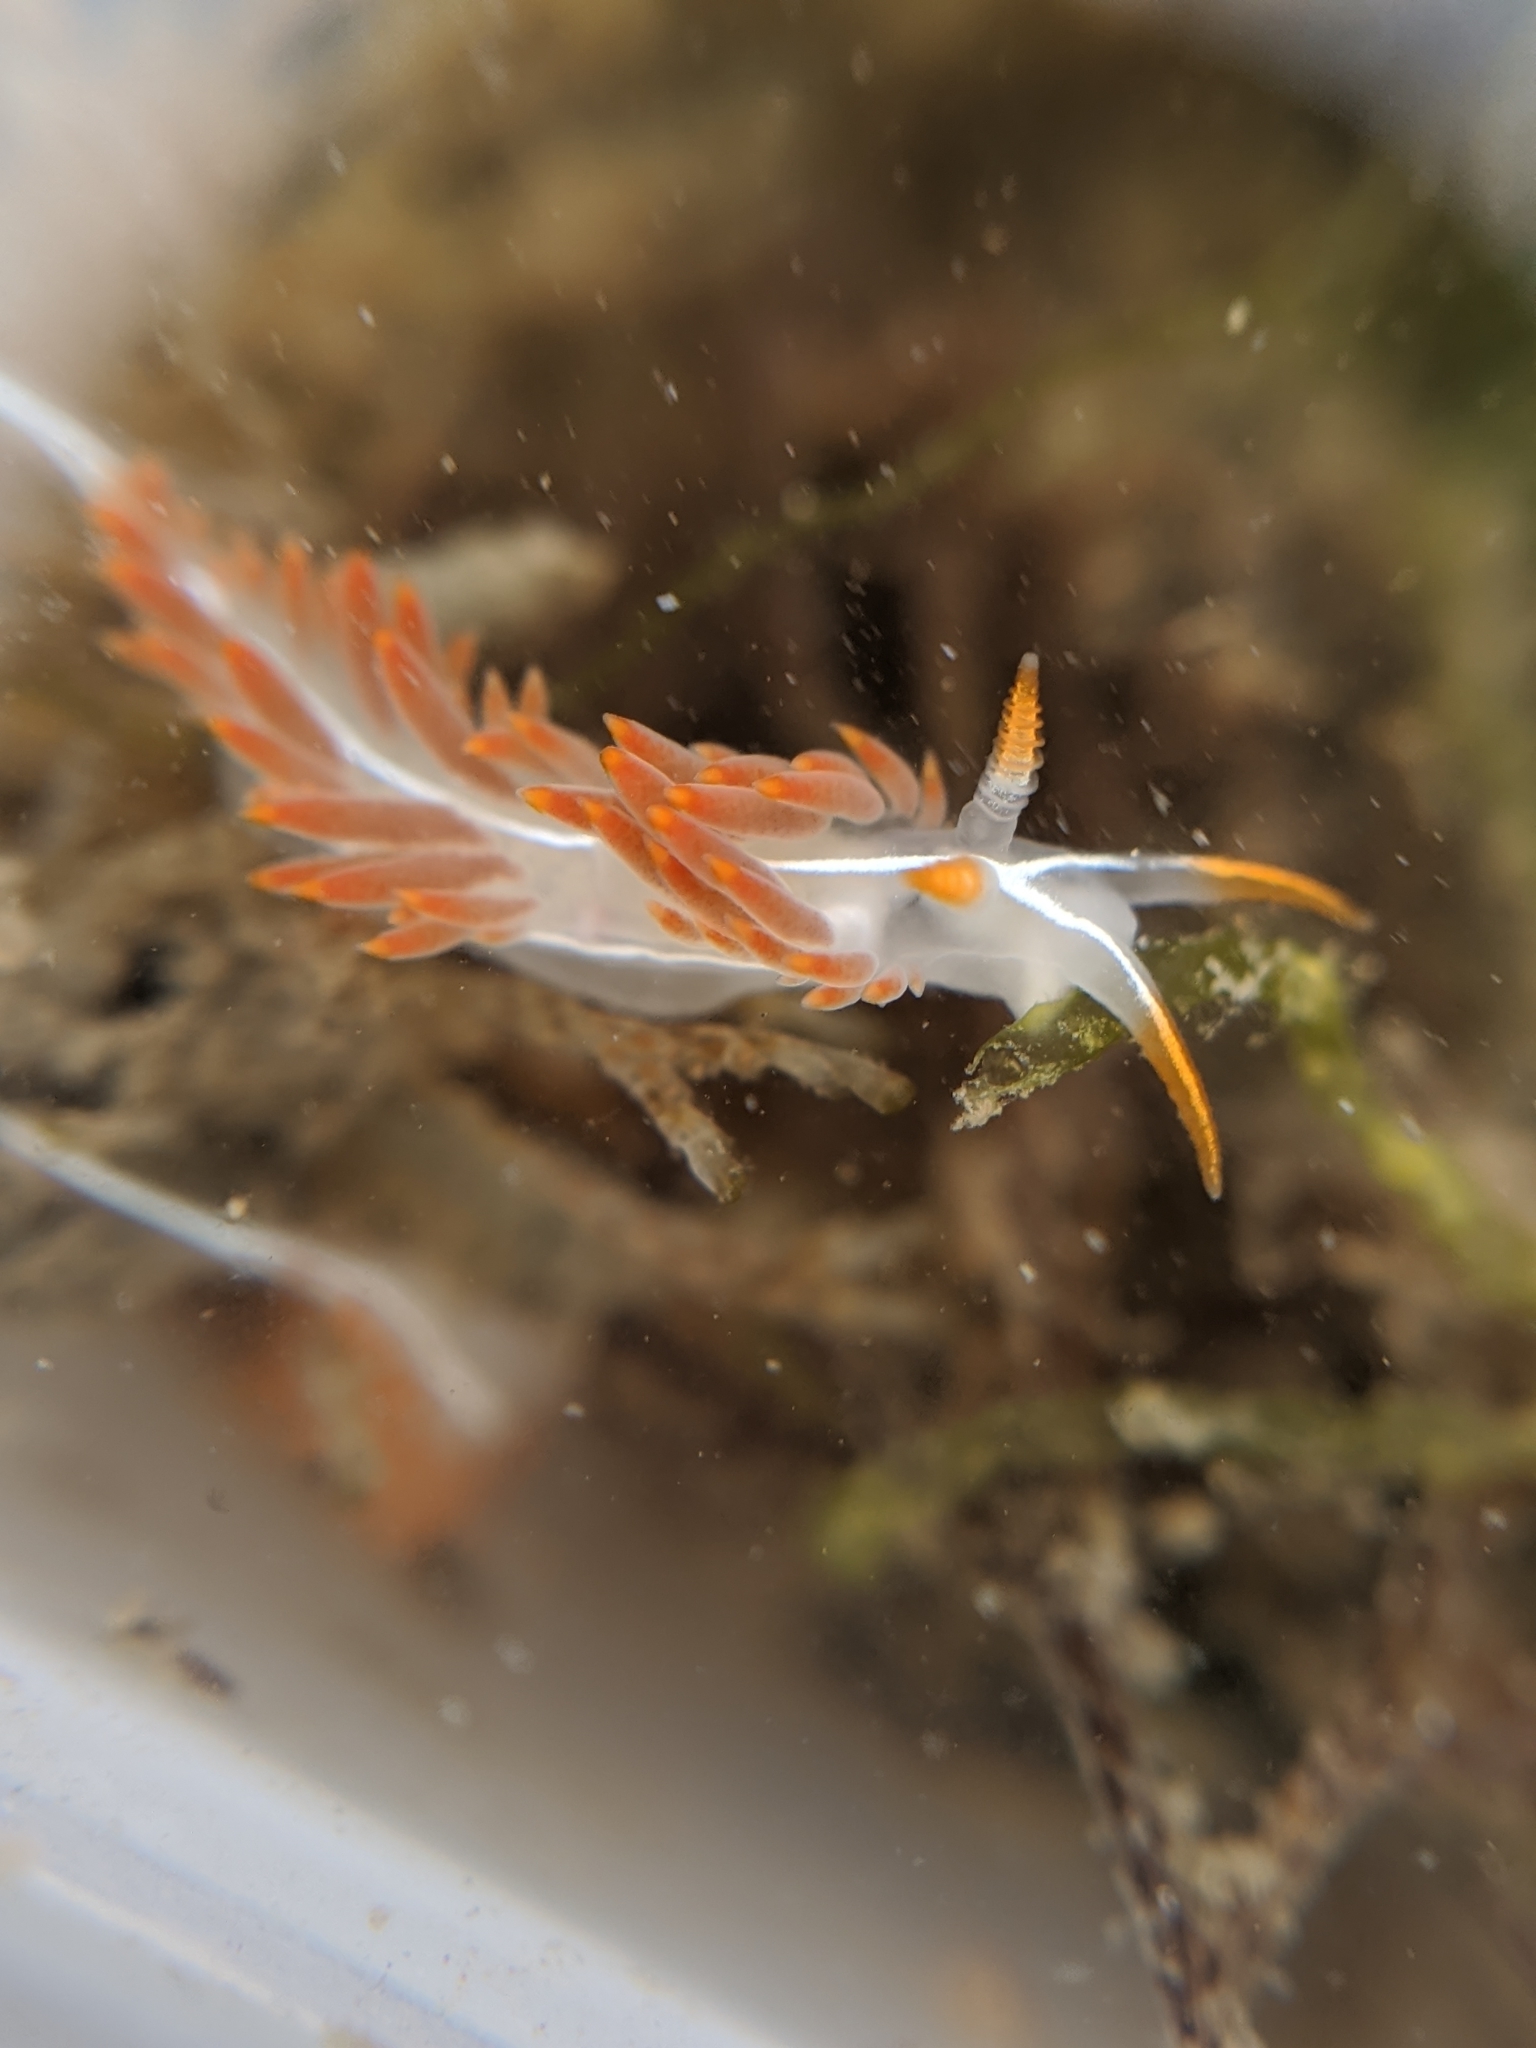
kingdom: Animalia
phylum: Mollusca
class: Gastropoda
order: Nudibranchia
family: Coryphellidae
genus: Coryphella
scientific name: Coryphella trilineata
